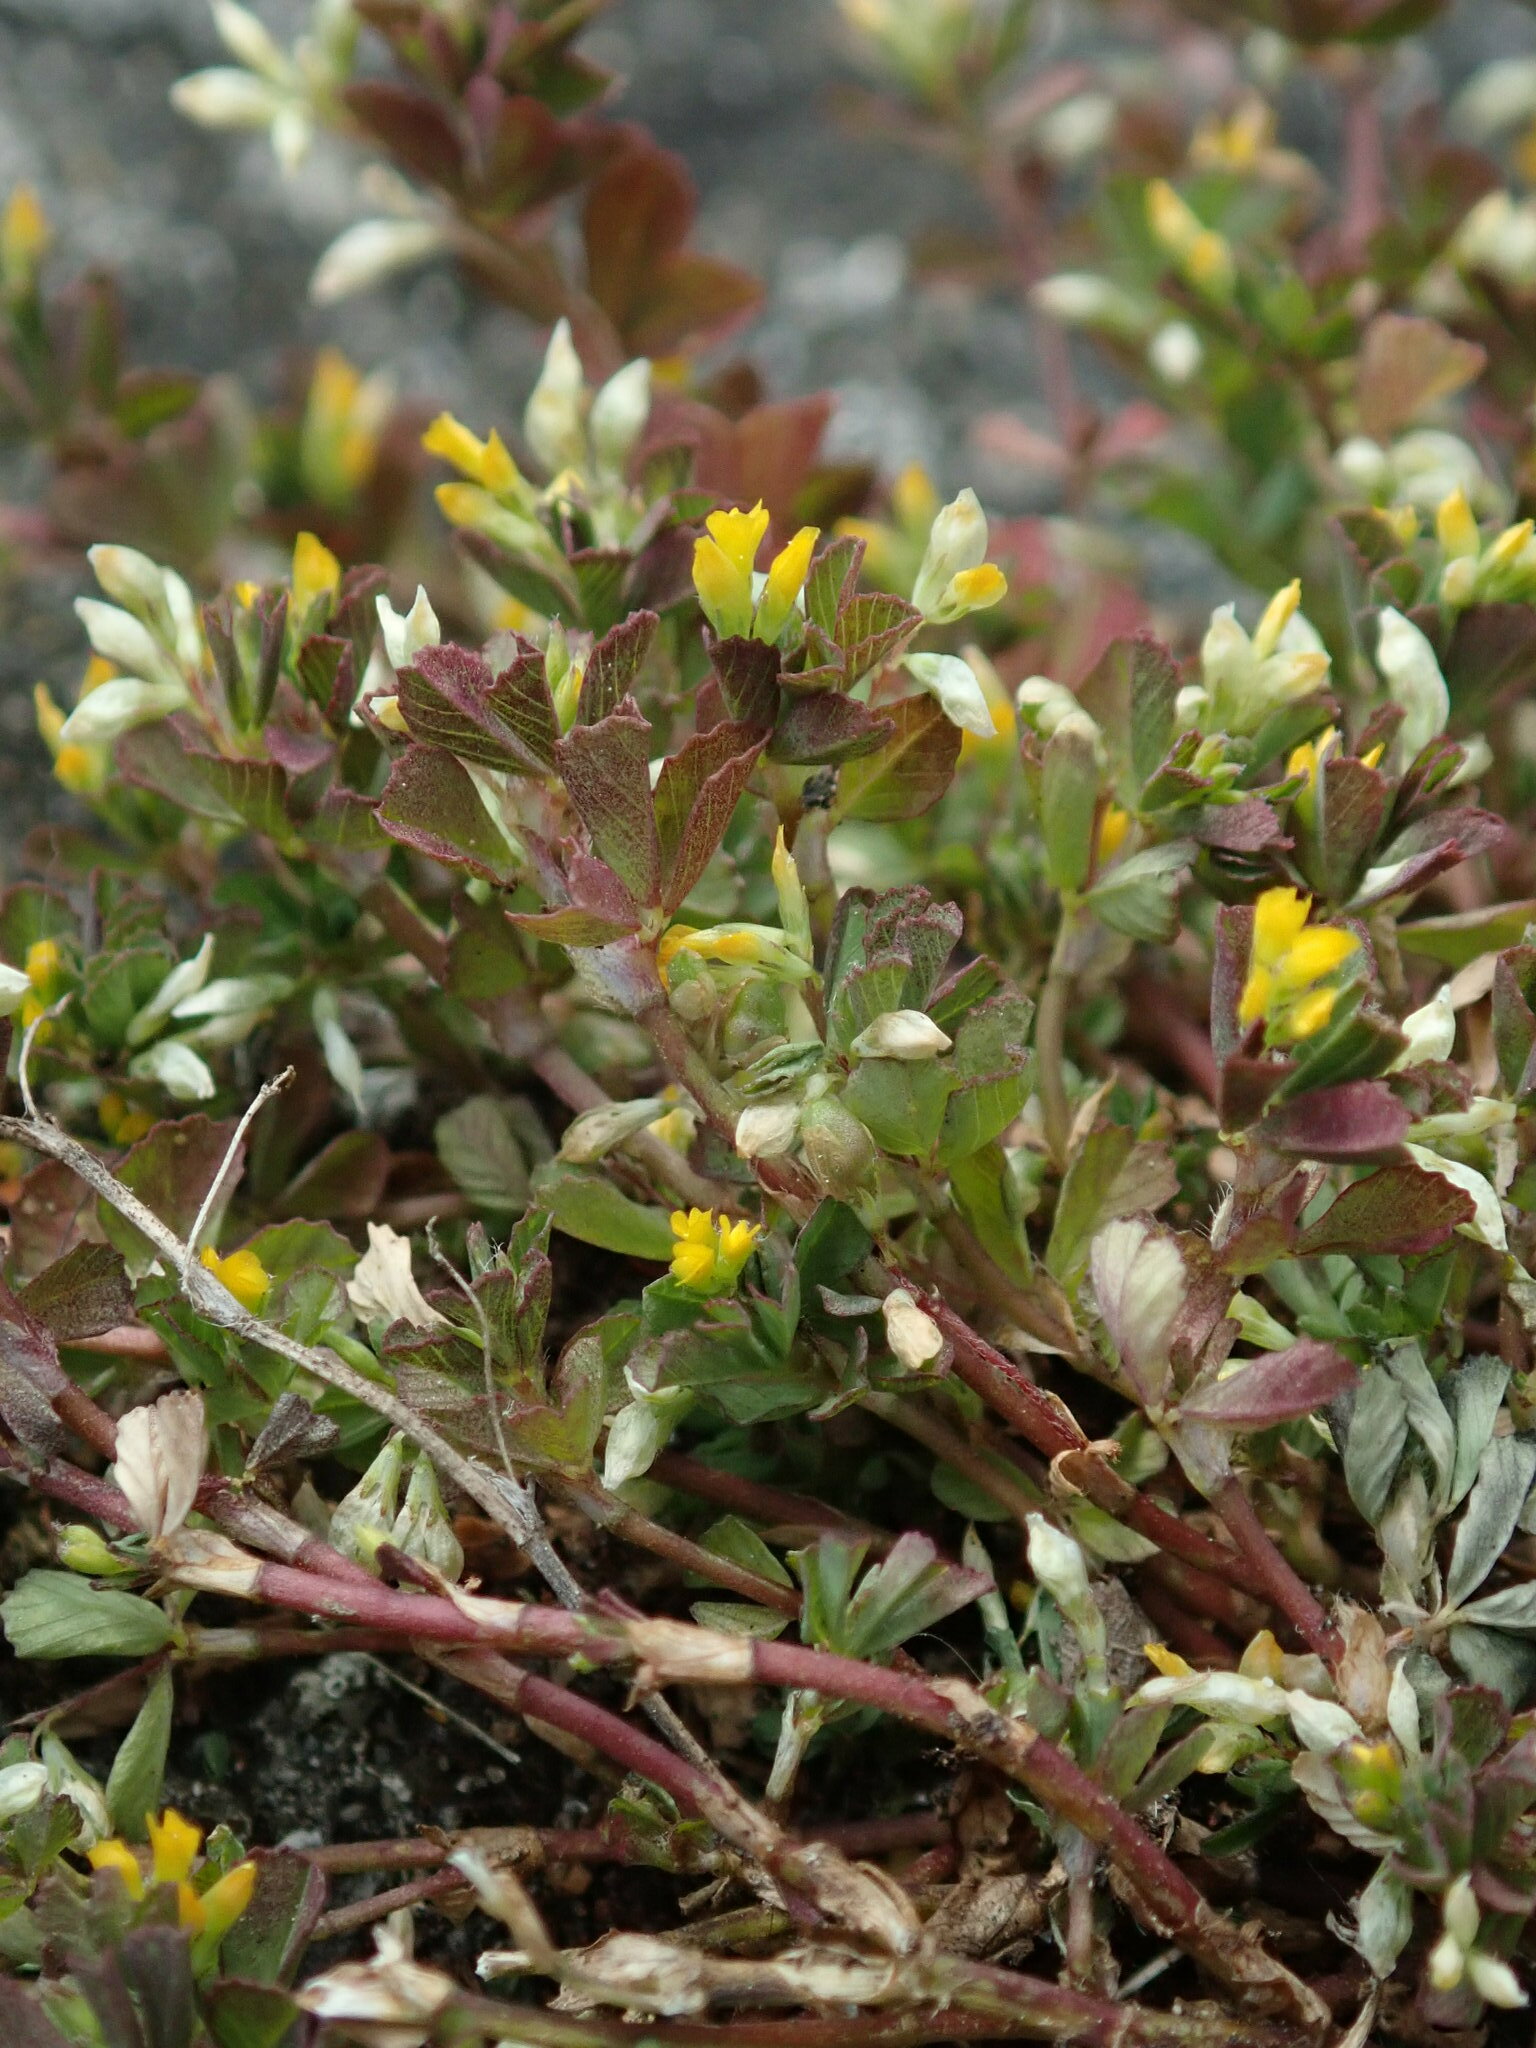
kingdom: Plantae
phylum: Tracheophyta
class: Magnoliopsida
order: Fabales
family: Fabaceae
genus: Trifolium
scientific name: Trifolium micranthum
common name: Slender trefoil
